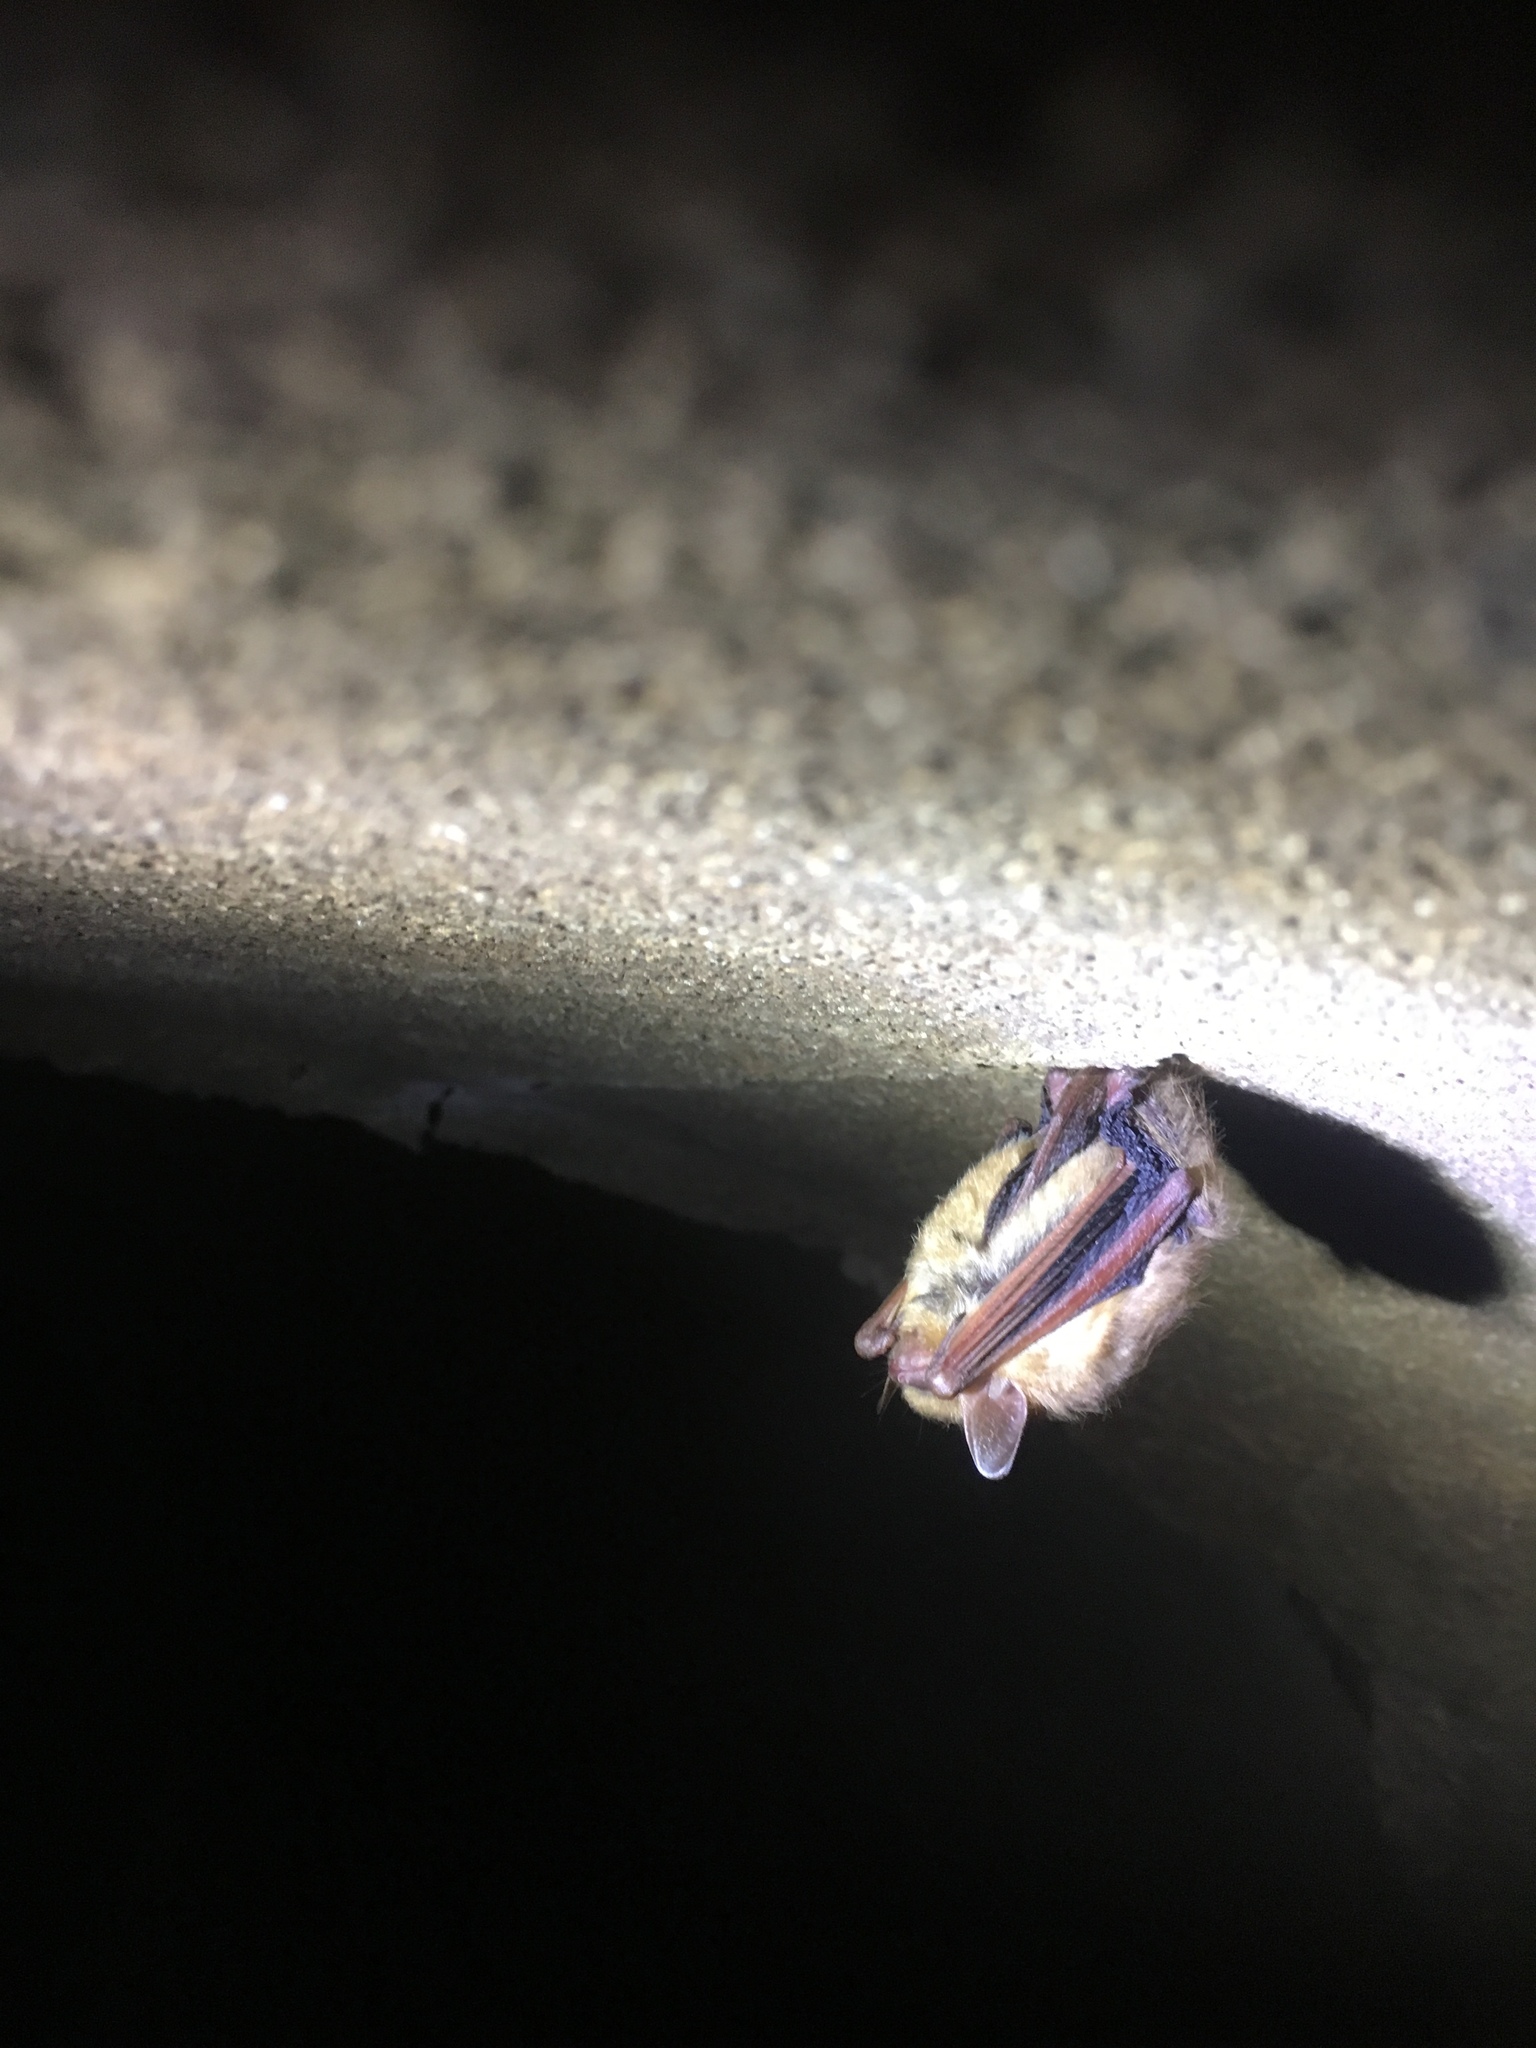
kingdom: Animalia
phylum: Chordata
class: Mammalia
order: Chiroptera
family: Vespertilionidae
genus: Perimyotis
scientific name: Perimyotis subflavus
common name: Eastern pipistrelle
